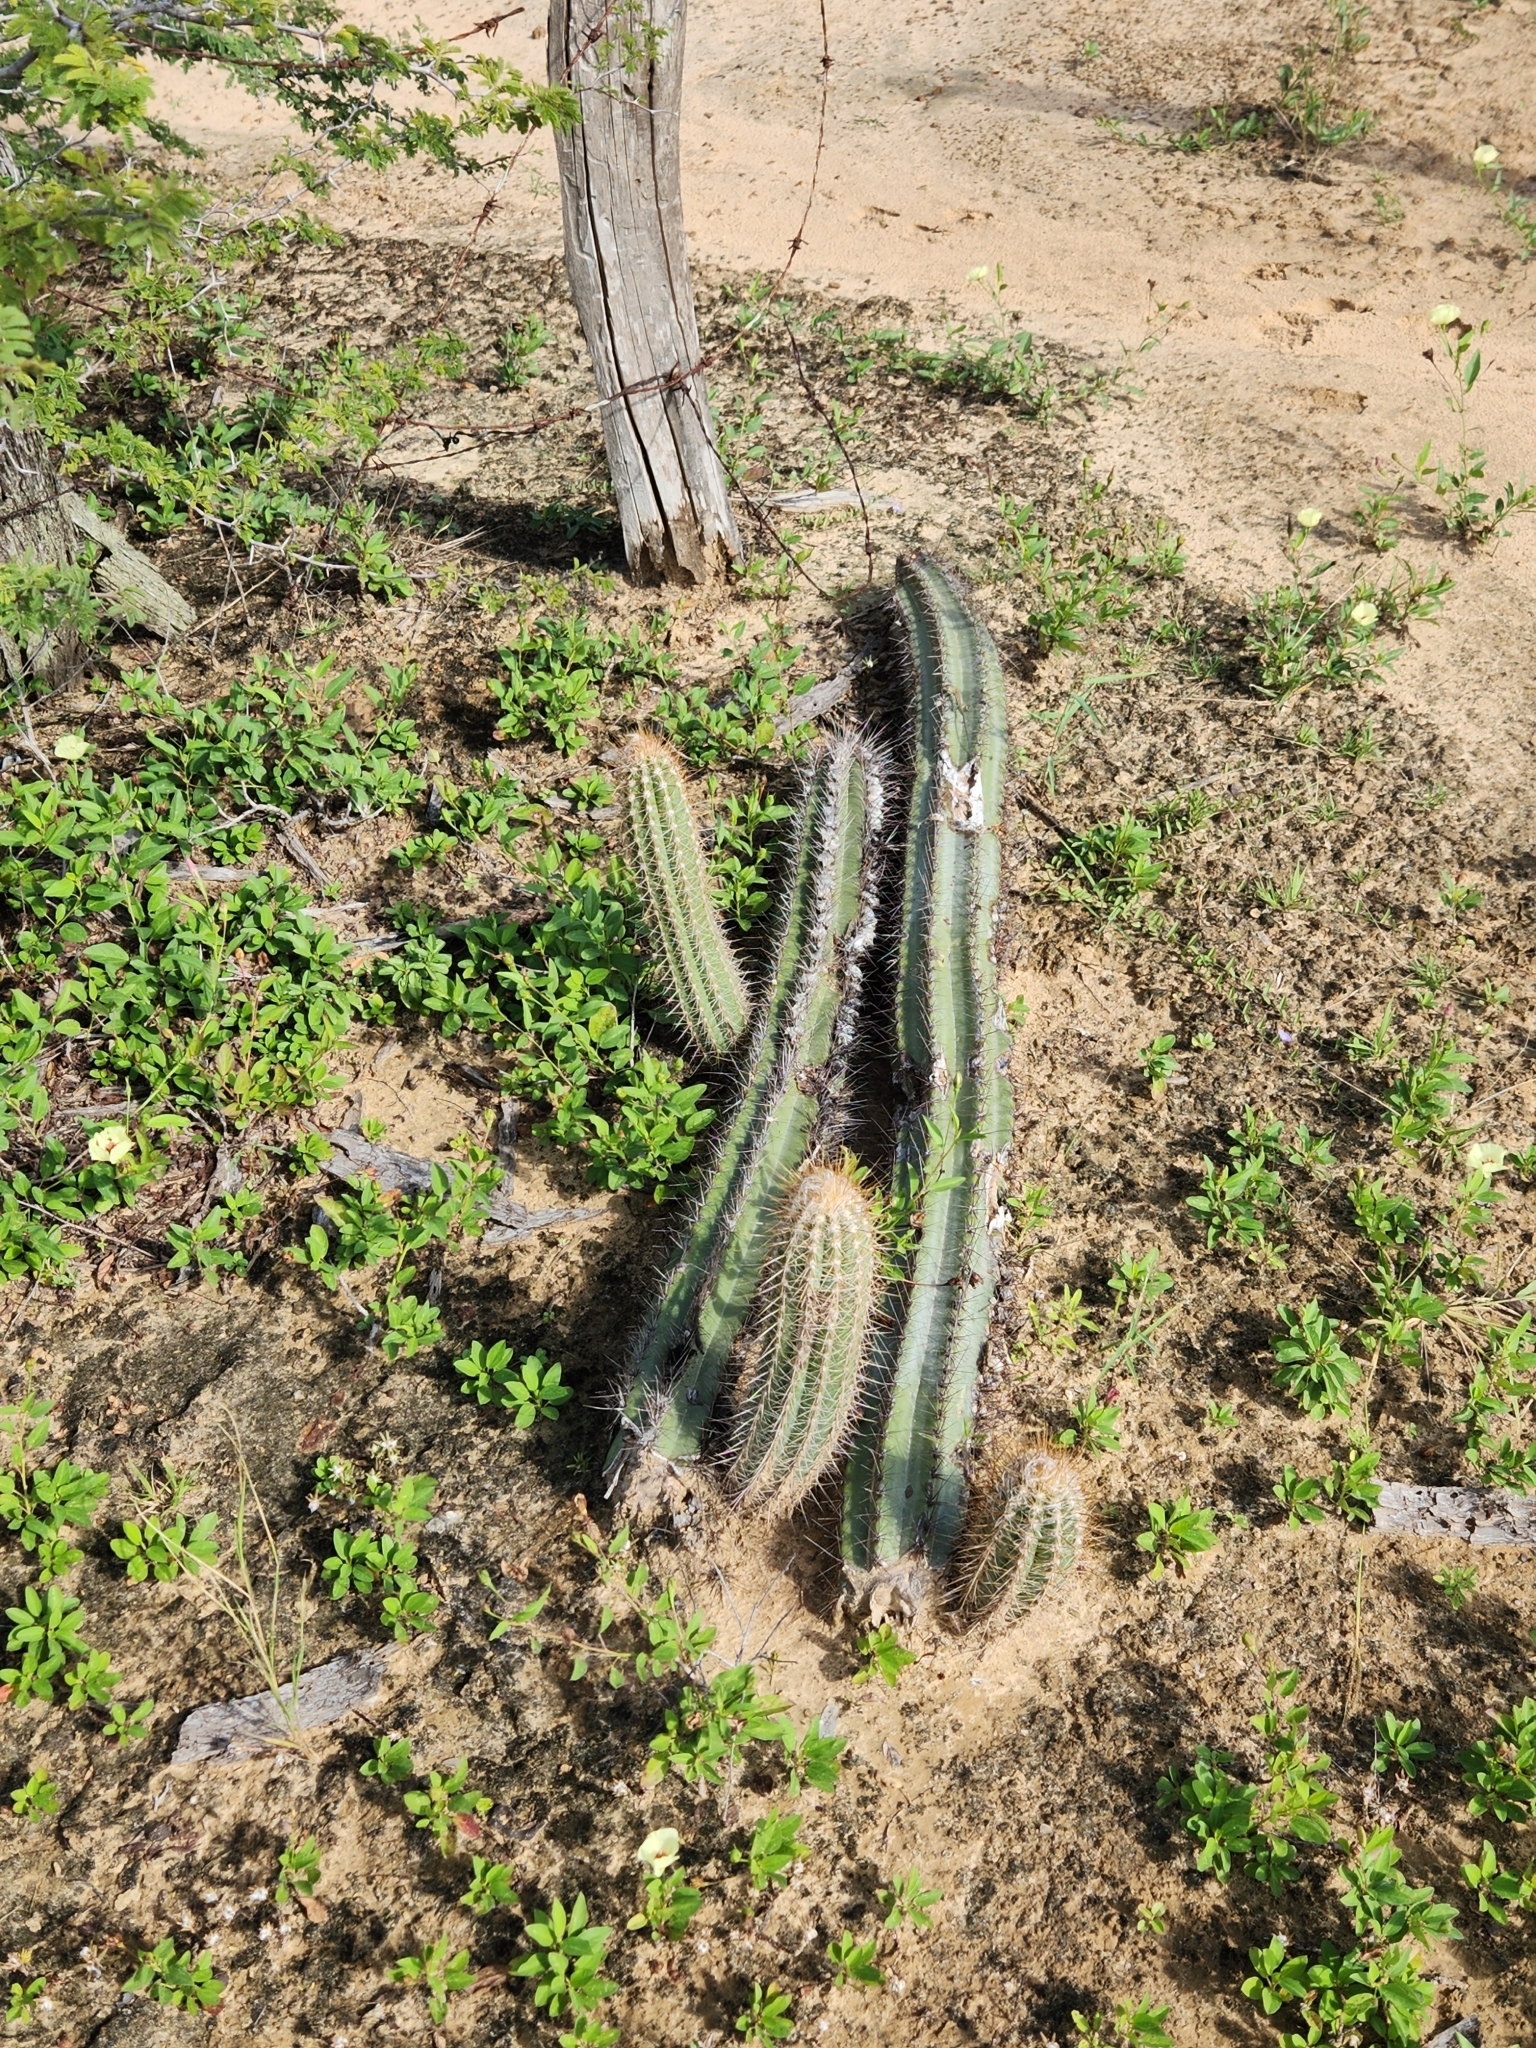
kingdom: Plantae
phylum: Tracheophyta
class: Magnoliopsida
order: Caryophyllales
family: Cactaceae
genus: Pilosocereus
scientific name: Pilosocereus lanuginosus
